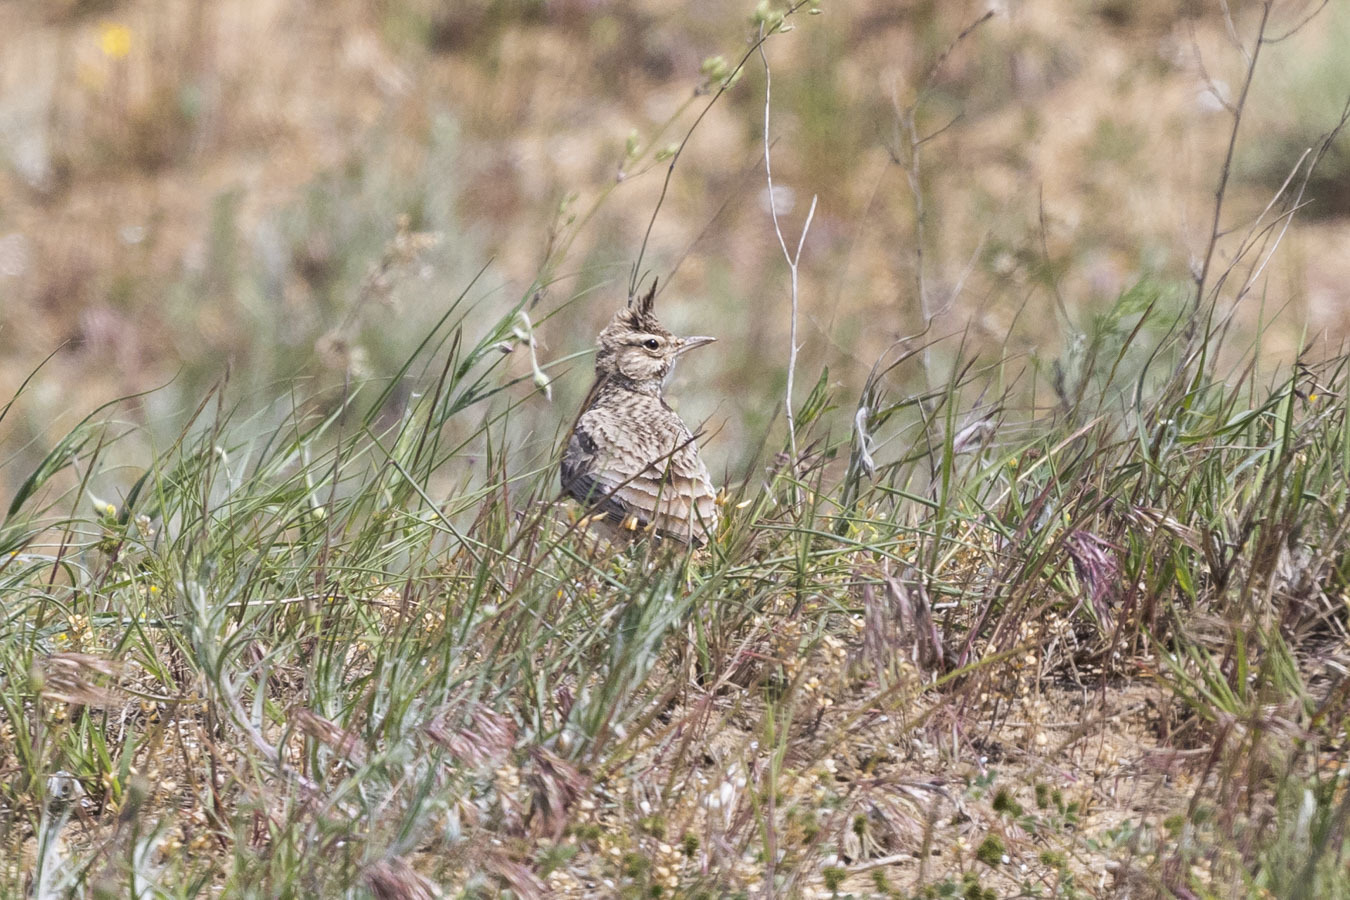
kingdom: Animalia
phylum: Chordata
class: Aves
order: Passeriformes
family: Alaudidae
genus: Galerida
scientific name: Galerida cristata
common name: Crested lark
